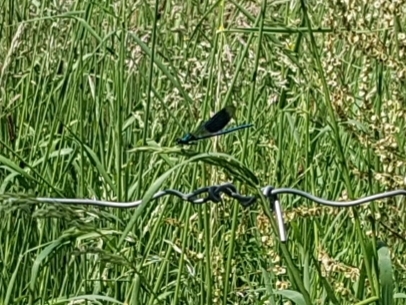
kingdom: Animalia
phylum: Arthropoda
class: Insecta
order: Odonata
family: Calopterygidae
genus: Calopteryx
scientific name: Calopteryx splendens
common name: Banded demoiselle
